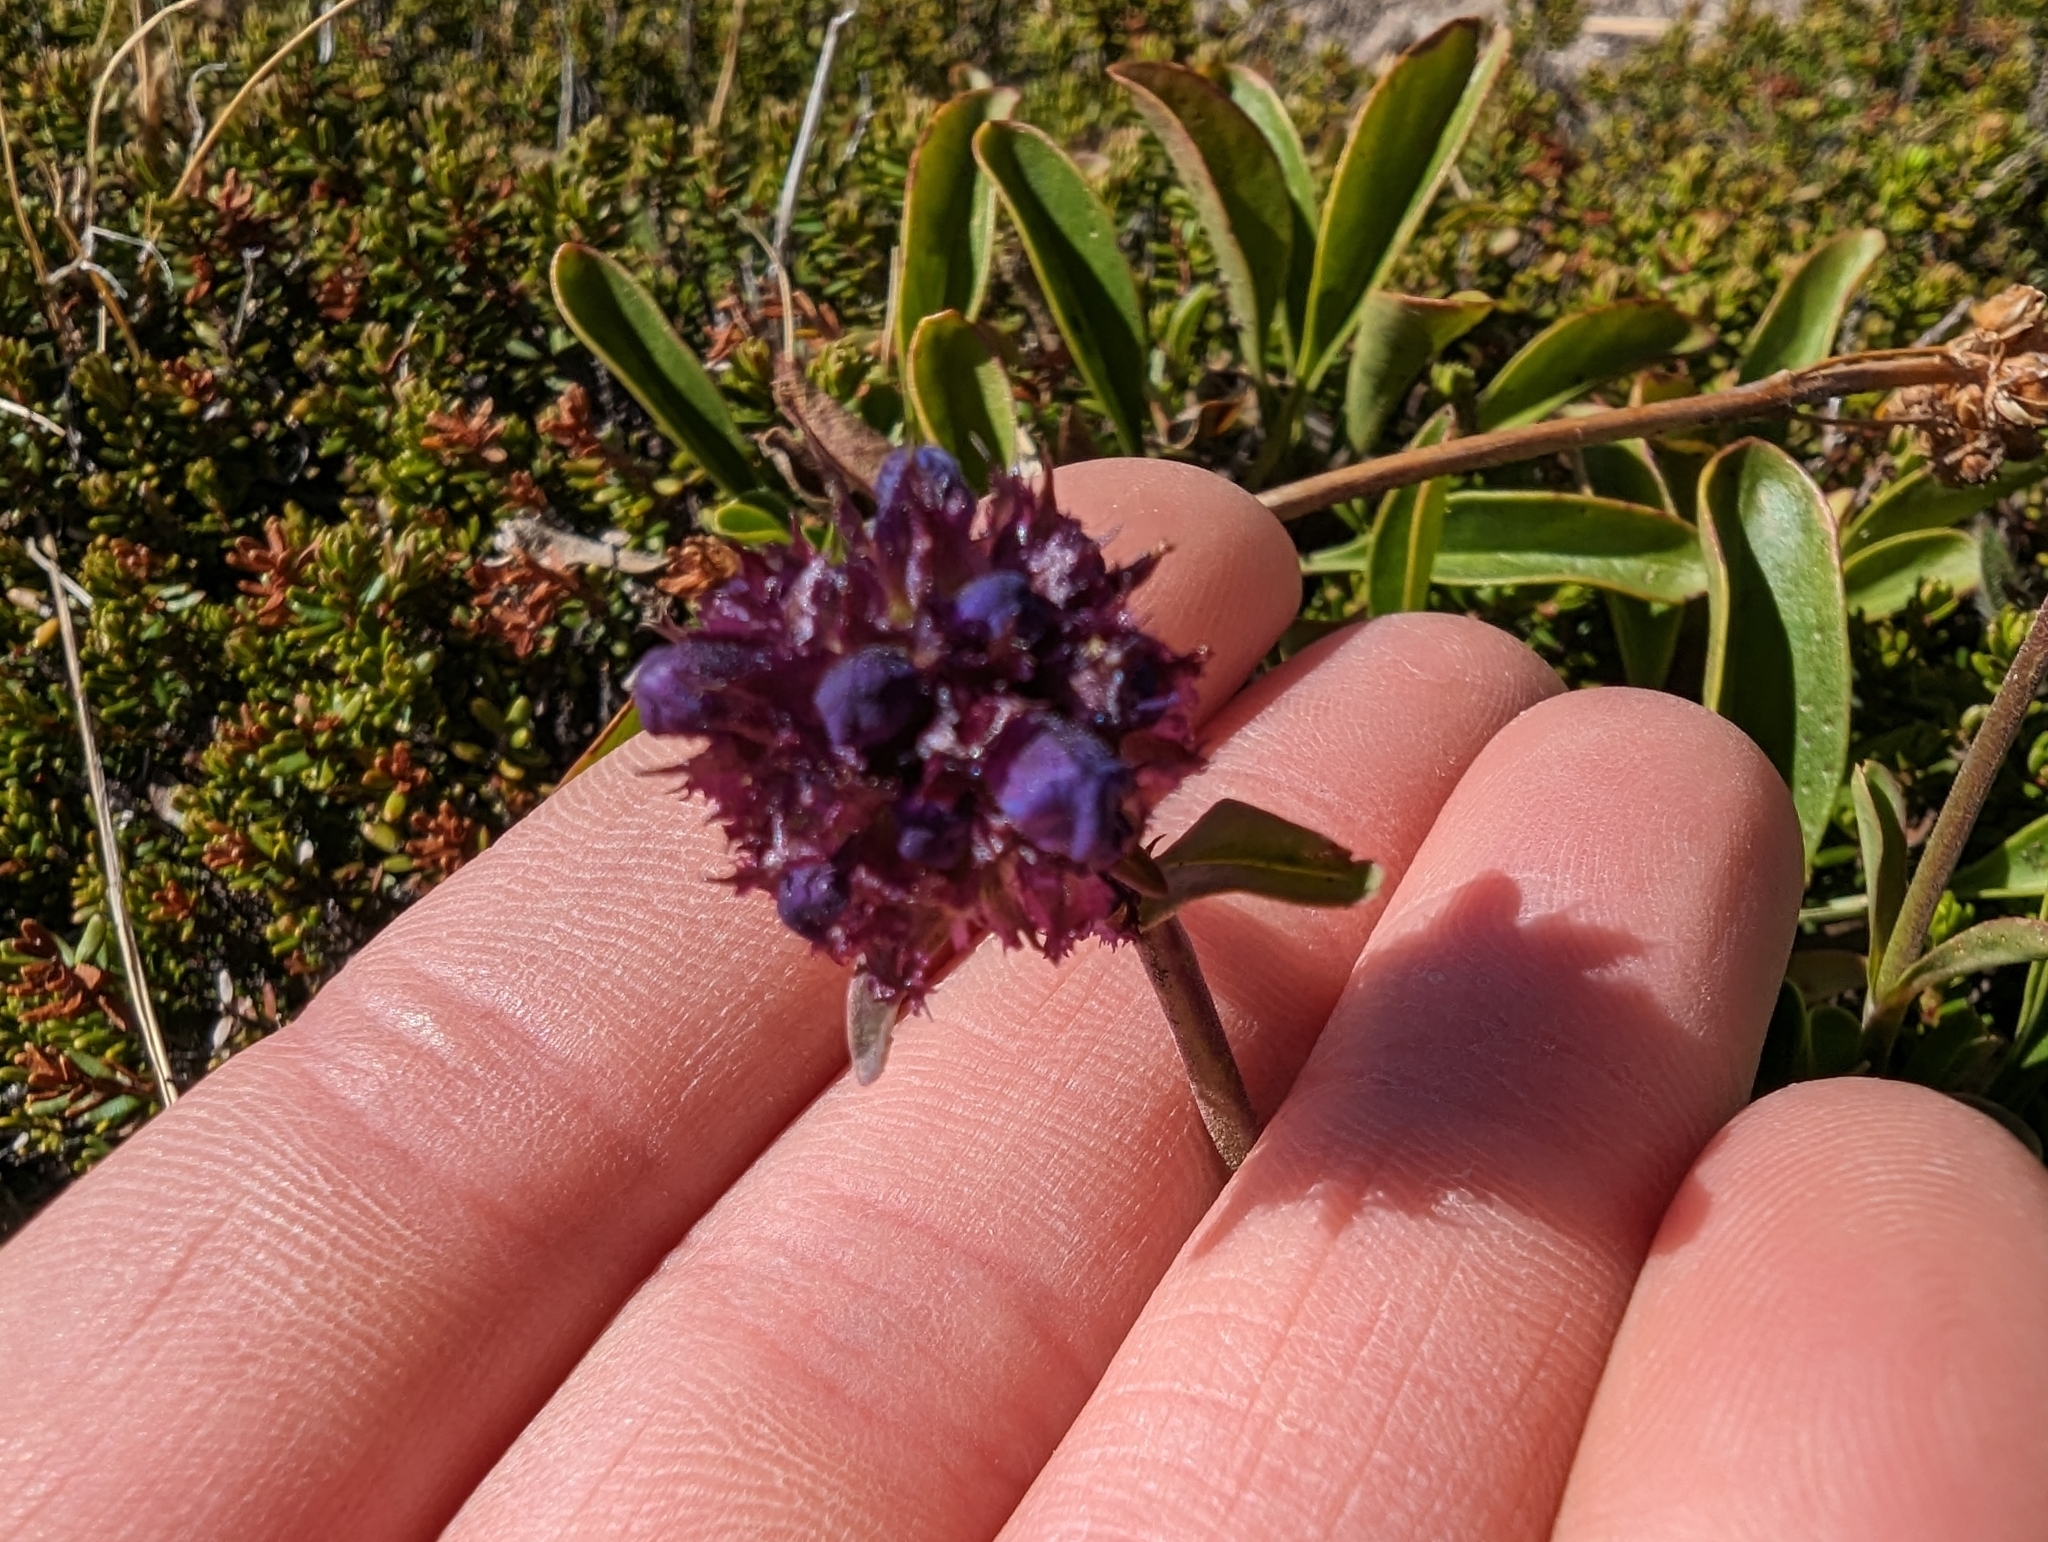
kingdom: Plantae
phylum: Tracheophyta
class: Magnoliopsida
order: Lamiales
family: Plantaginaceae
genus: Penstemon
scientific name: Penstemon procerus
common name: Small-flower penstemon
